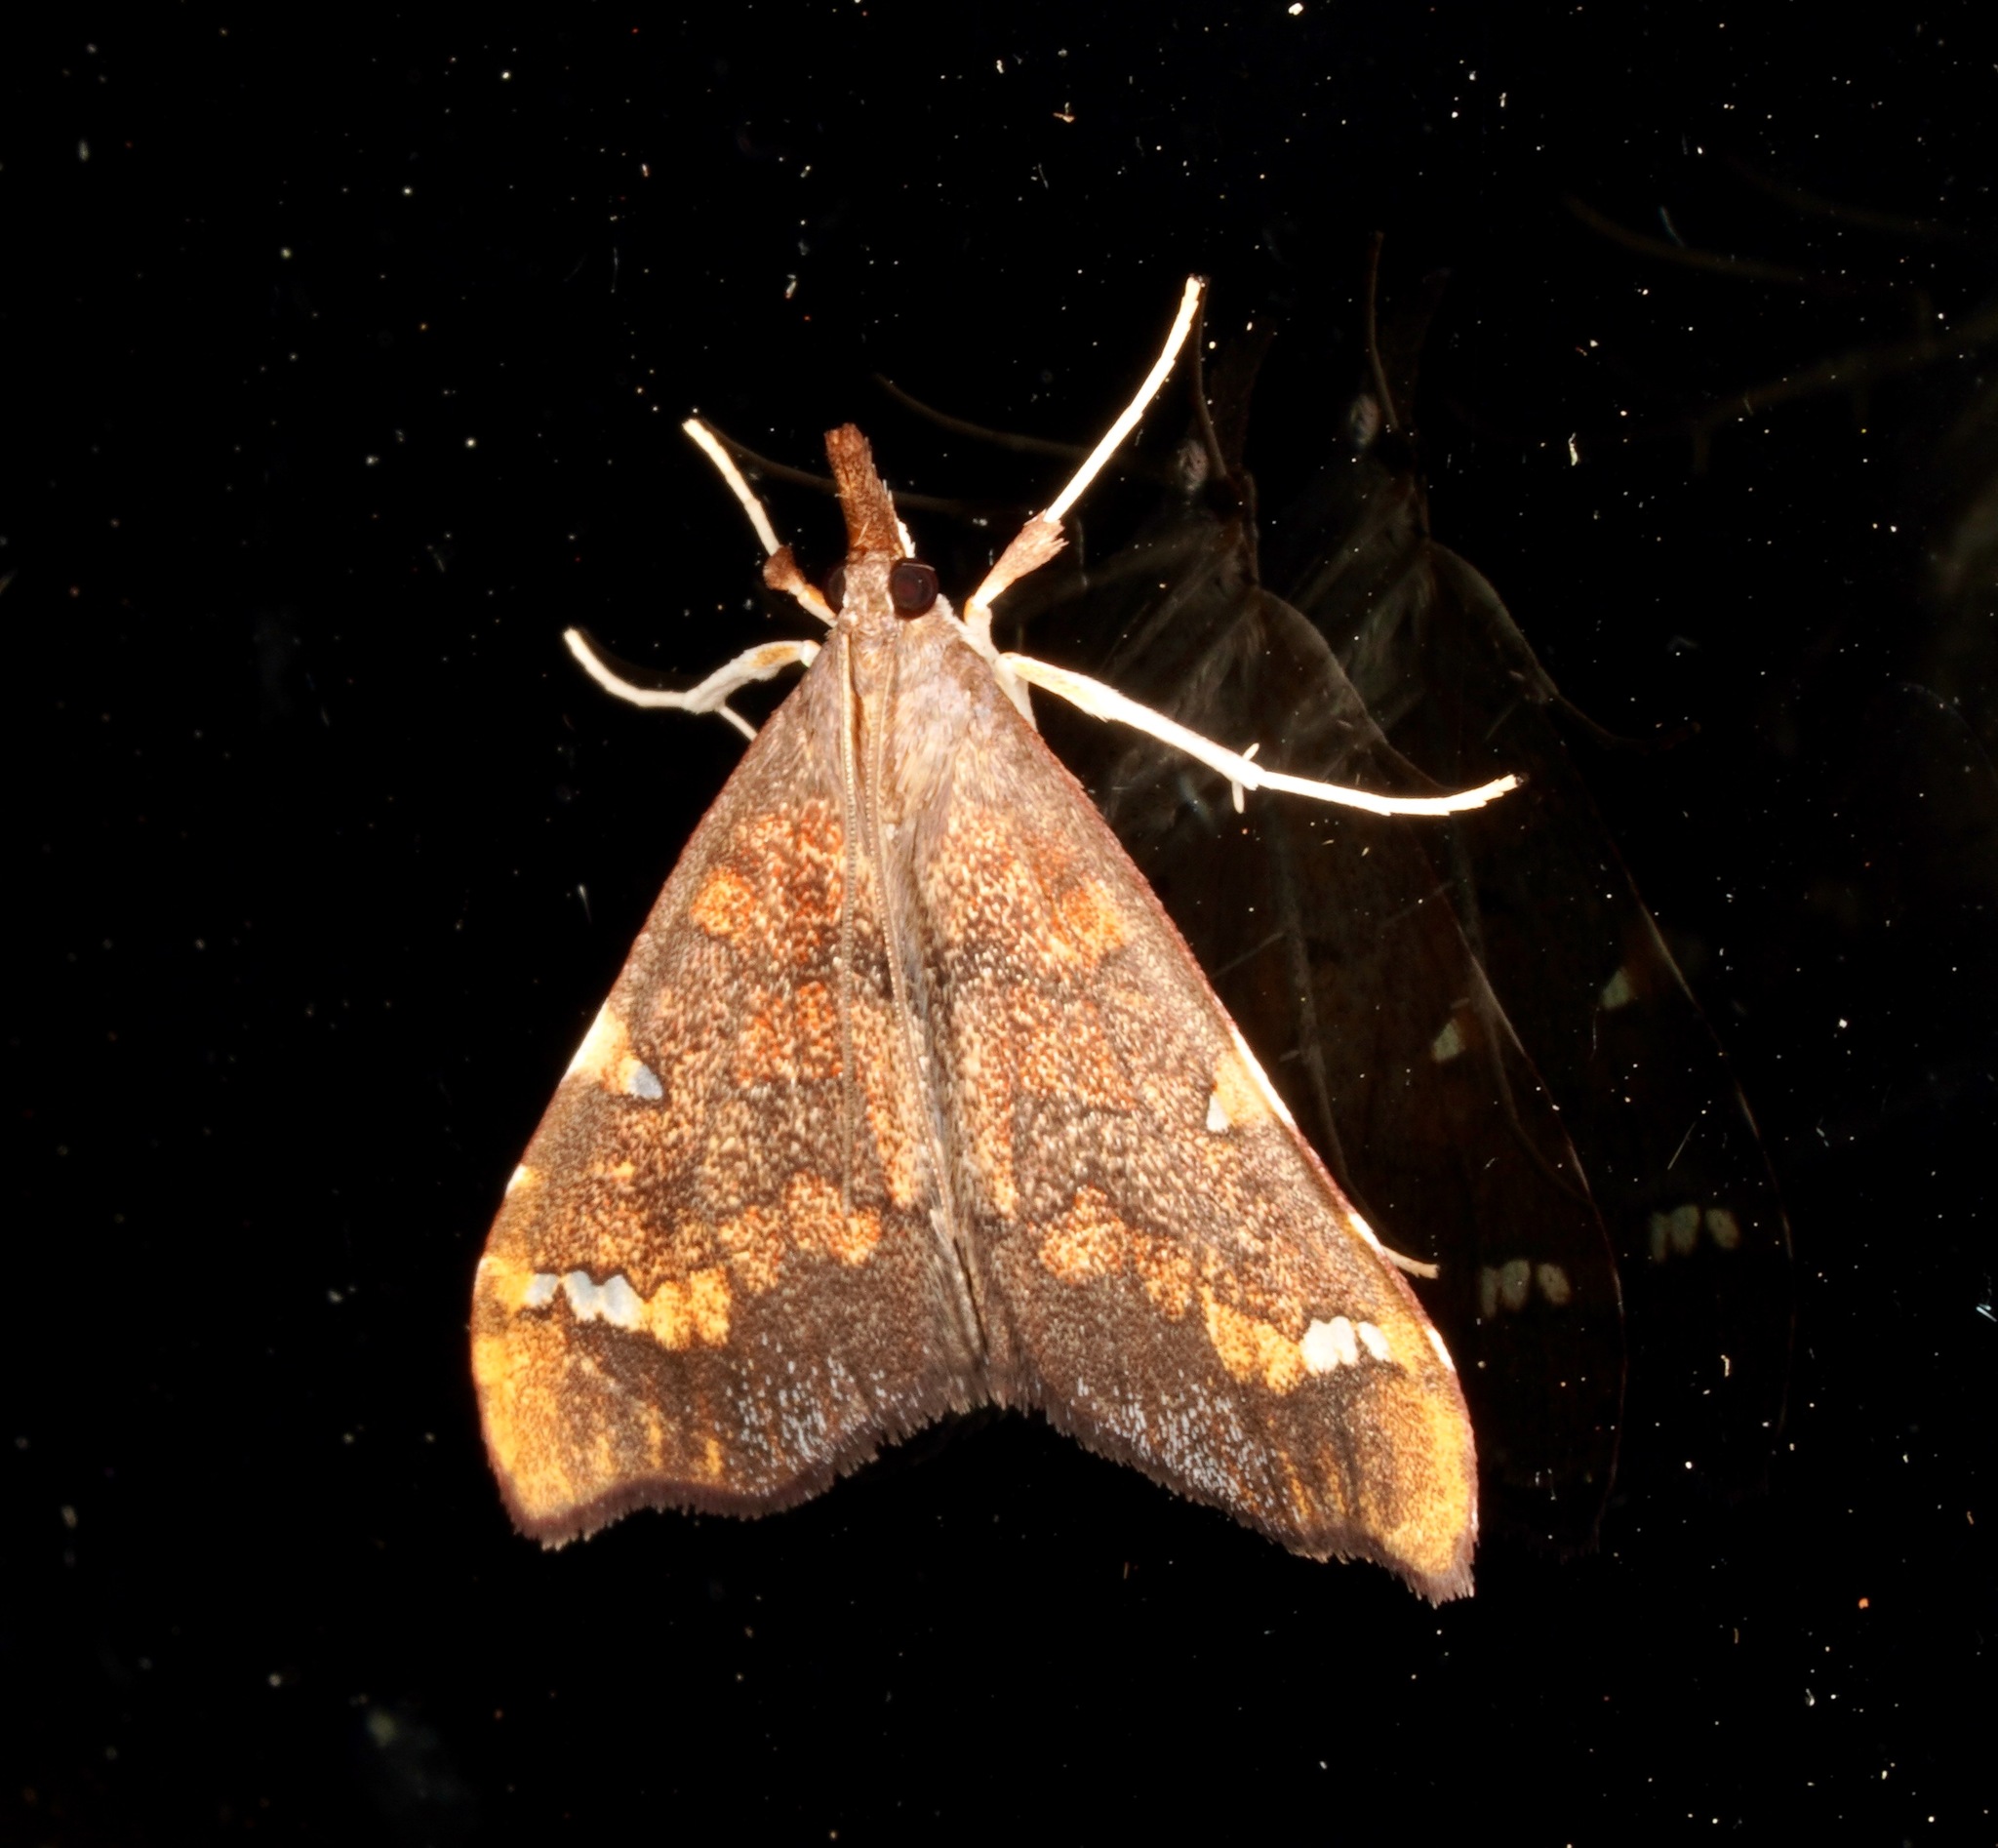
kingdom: Animalia
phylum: Arthropoda
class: Insecta
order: Lepidoptera
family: Crambidae
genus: Deana
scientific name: Deana hybreasalis
